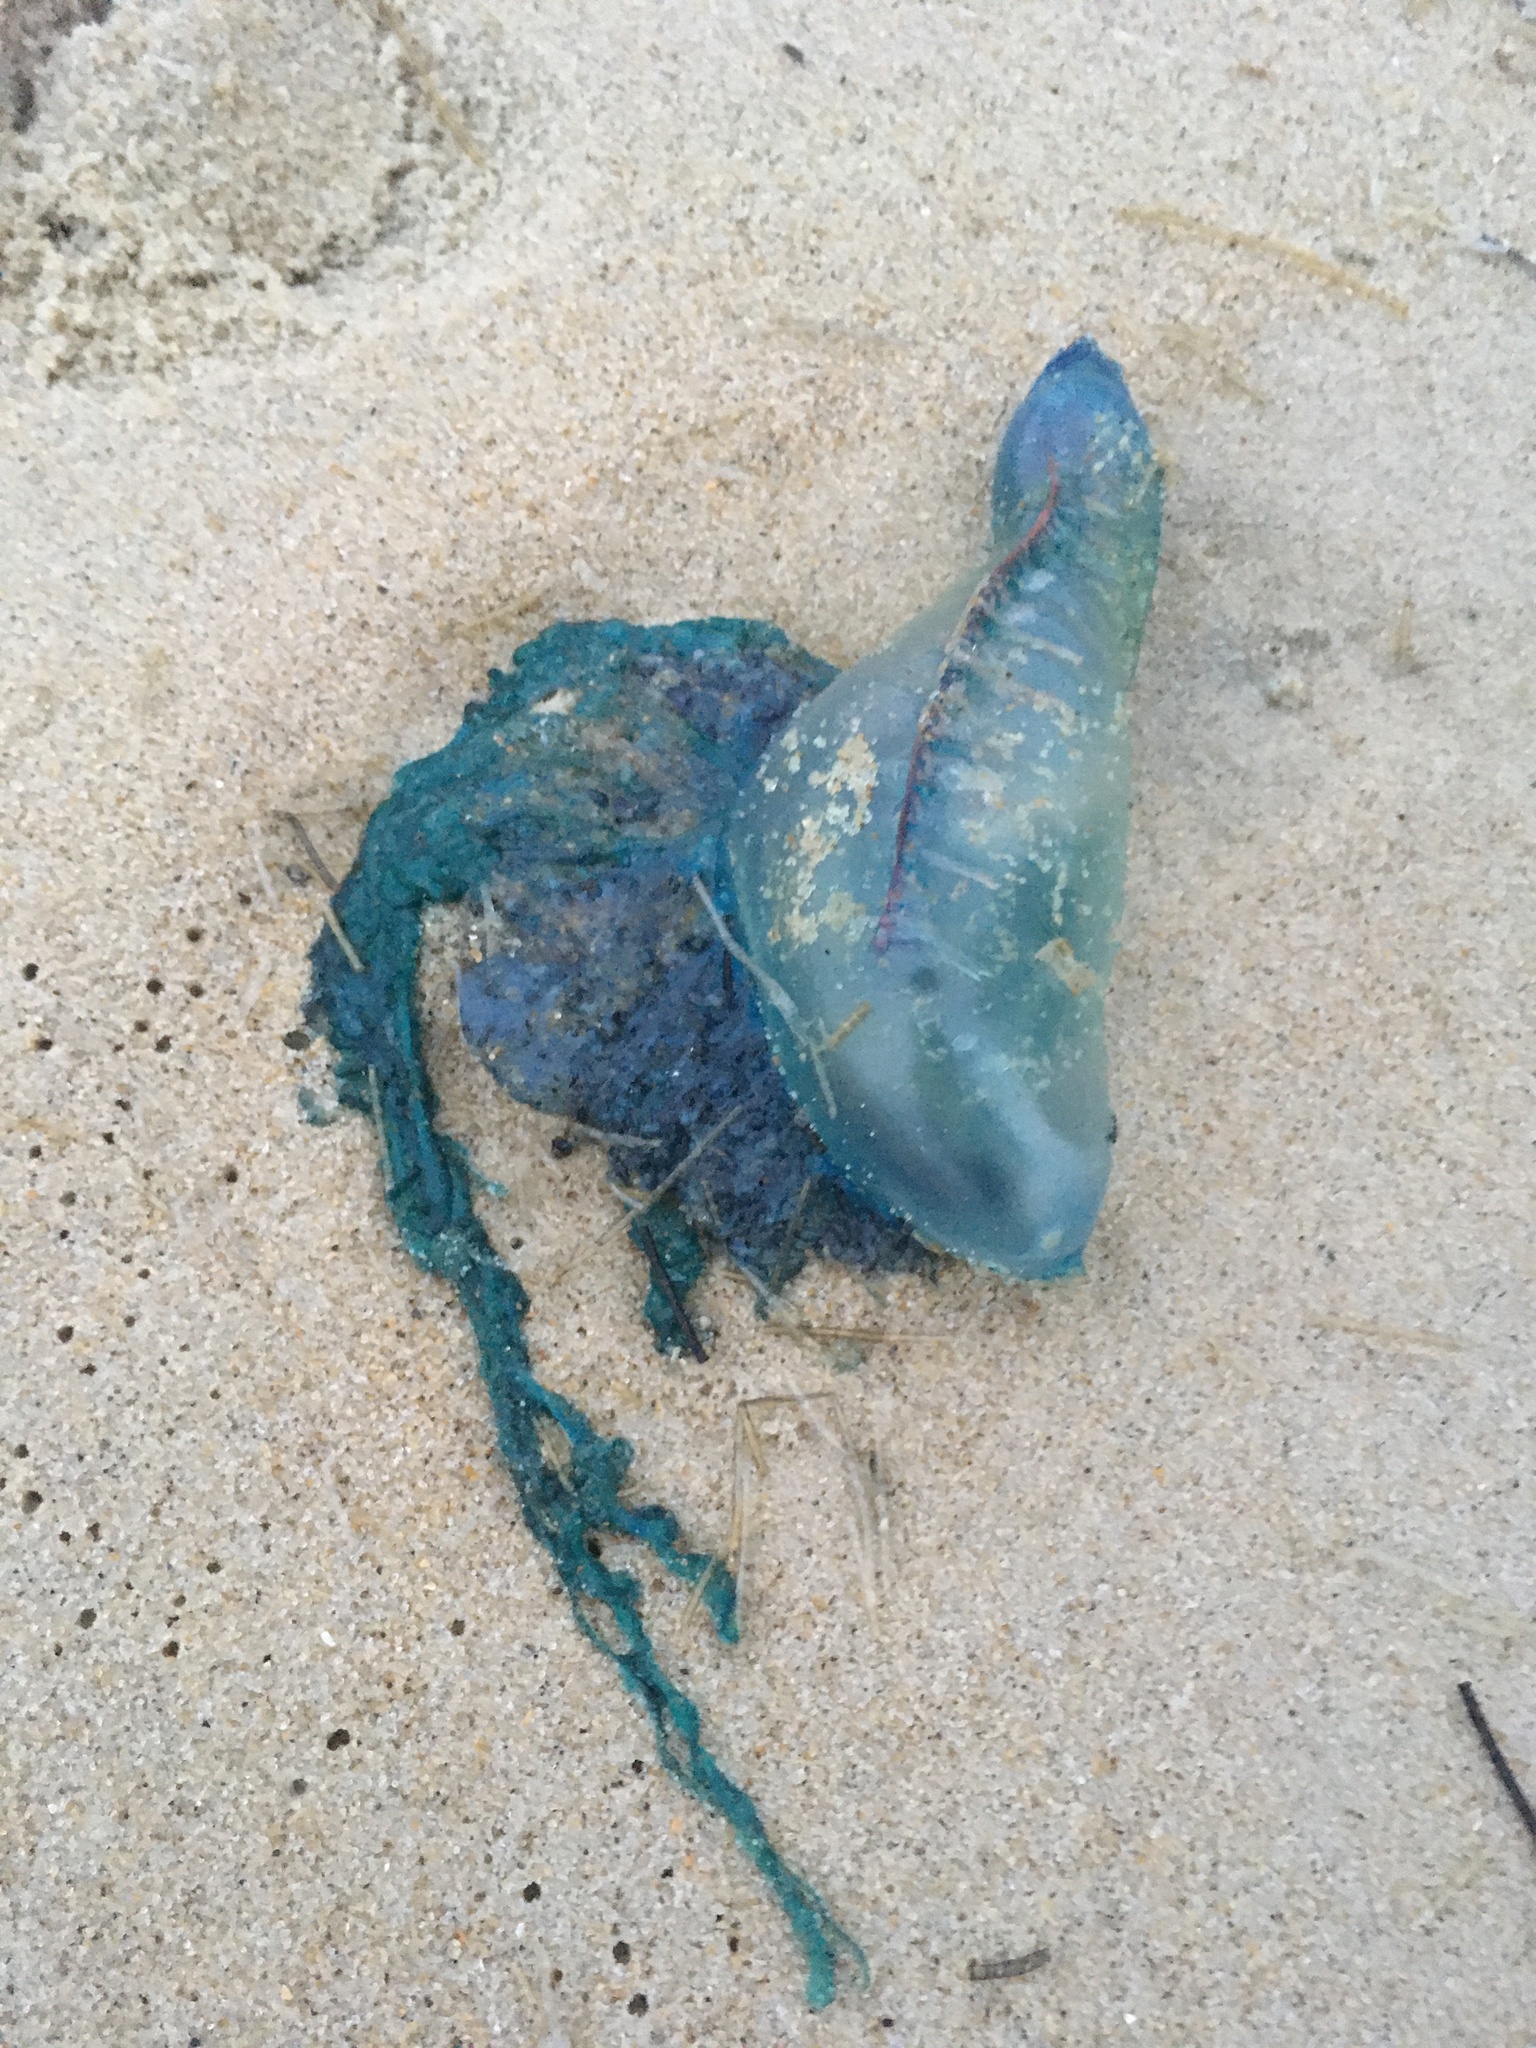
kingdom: Animalia
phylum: Cnidaria
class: Hydrozoa
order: Siphonophorae
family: Physaliidae
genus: Physalia
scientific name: Physalia physalis
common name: Portuguese man-of-war
